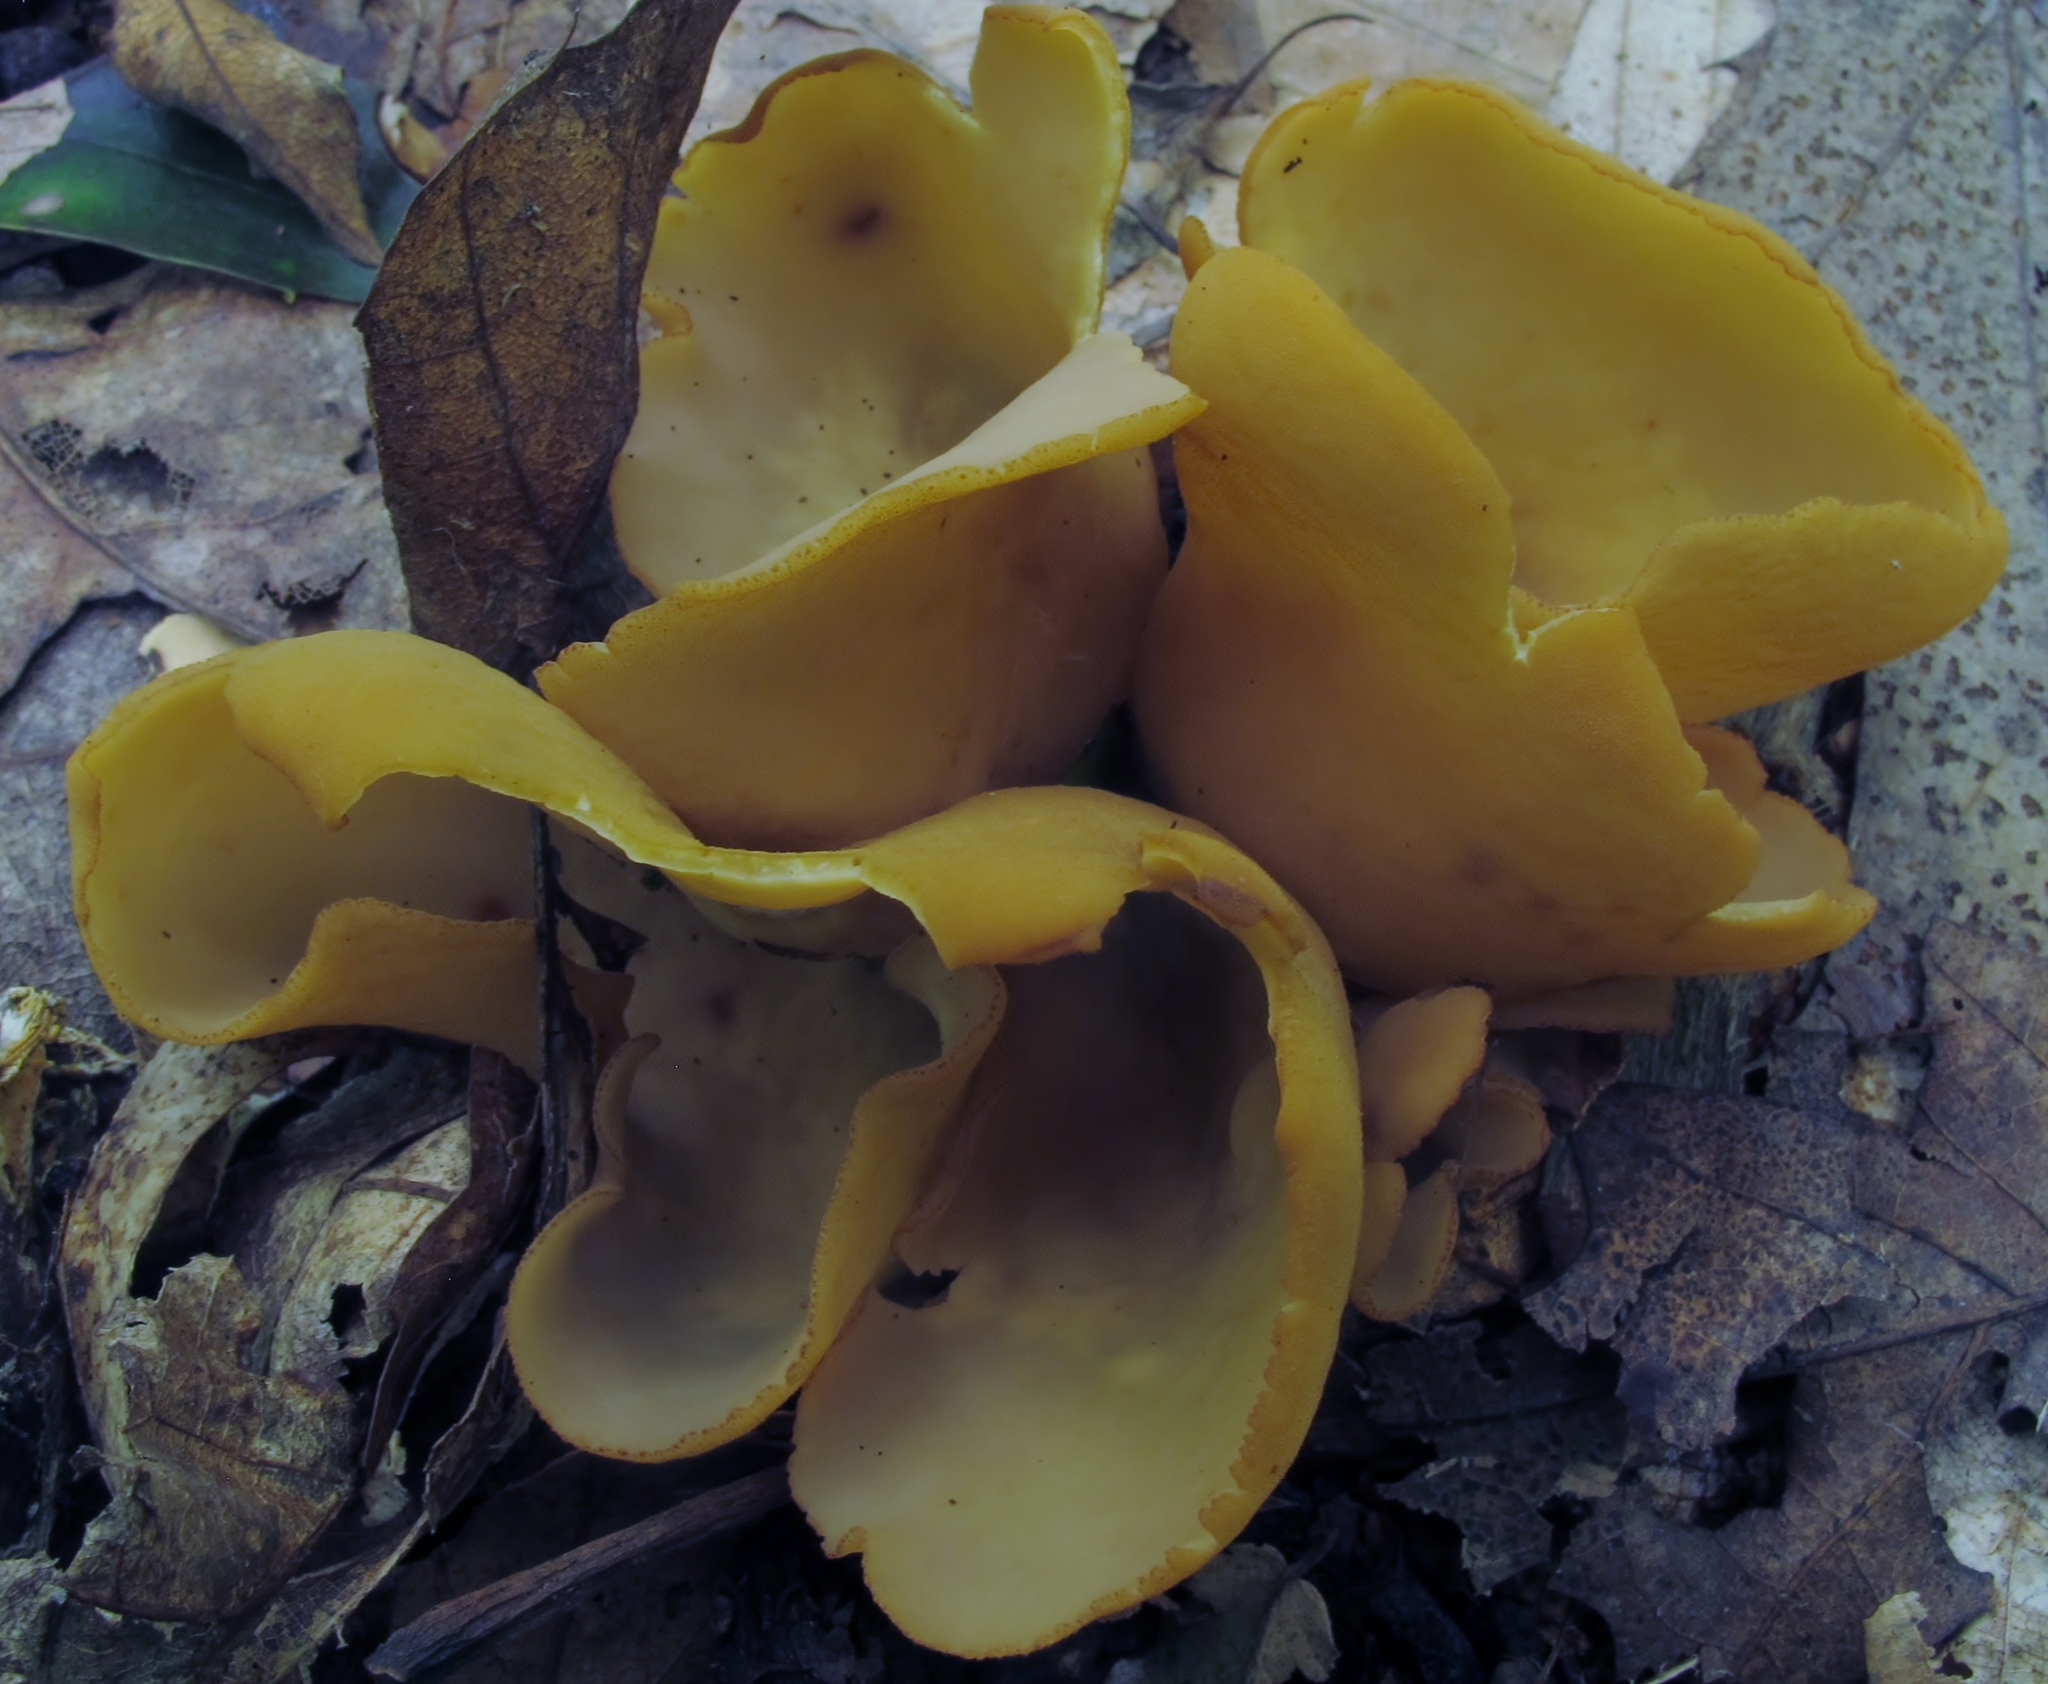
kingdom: Fungi
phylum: Ascomycota
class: Pezizomycetes
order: Pezizales
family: Otideaceae
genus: Otidea
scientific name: Otidea onotica
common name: Hare's ear
